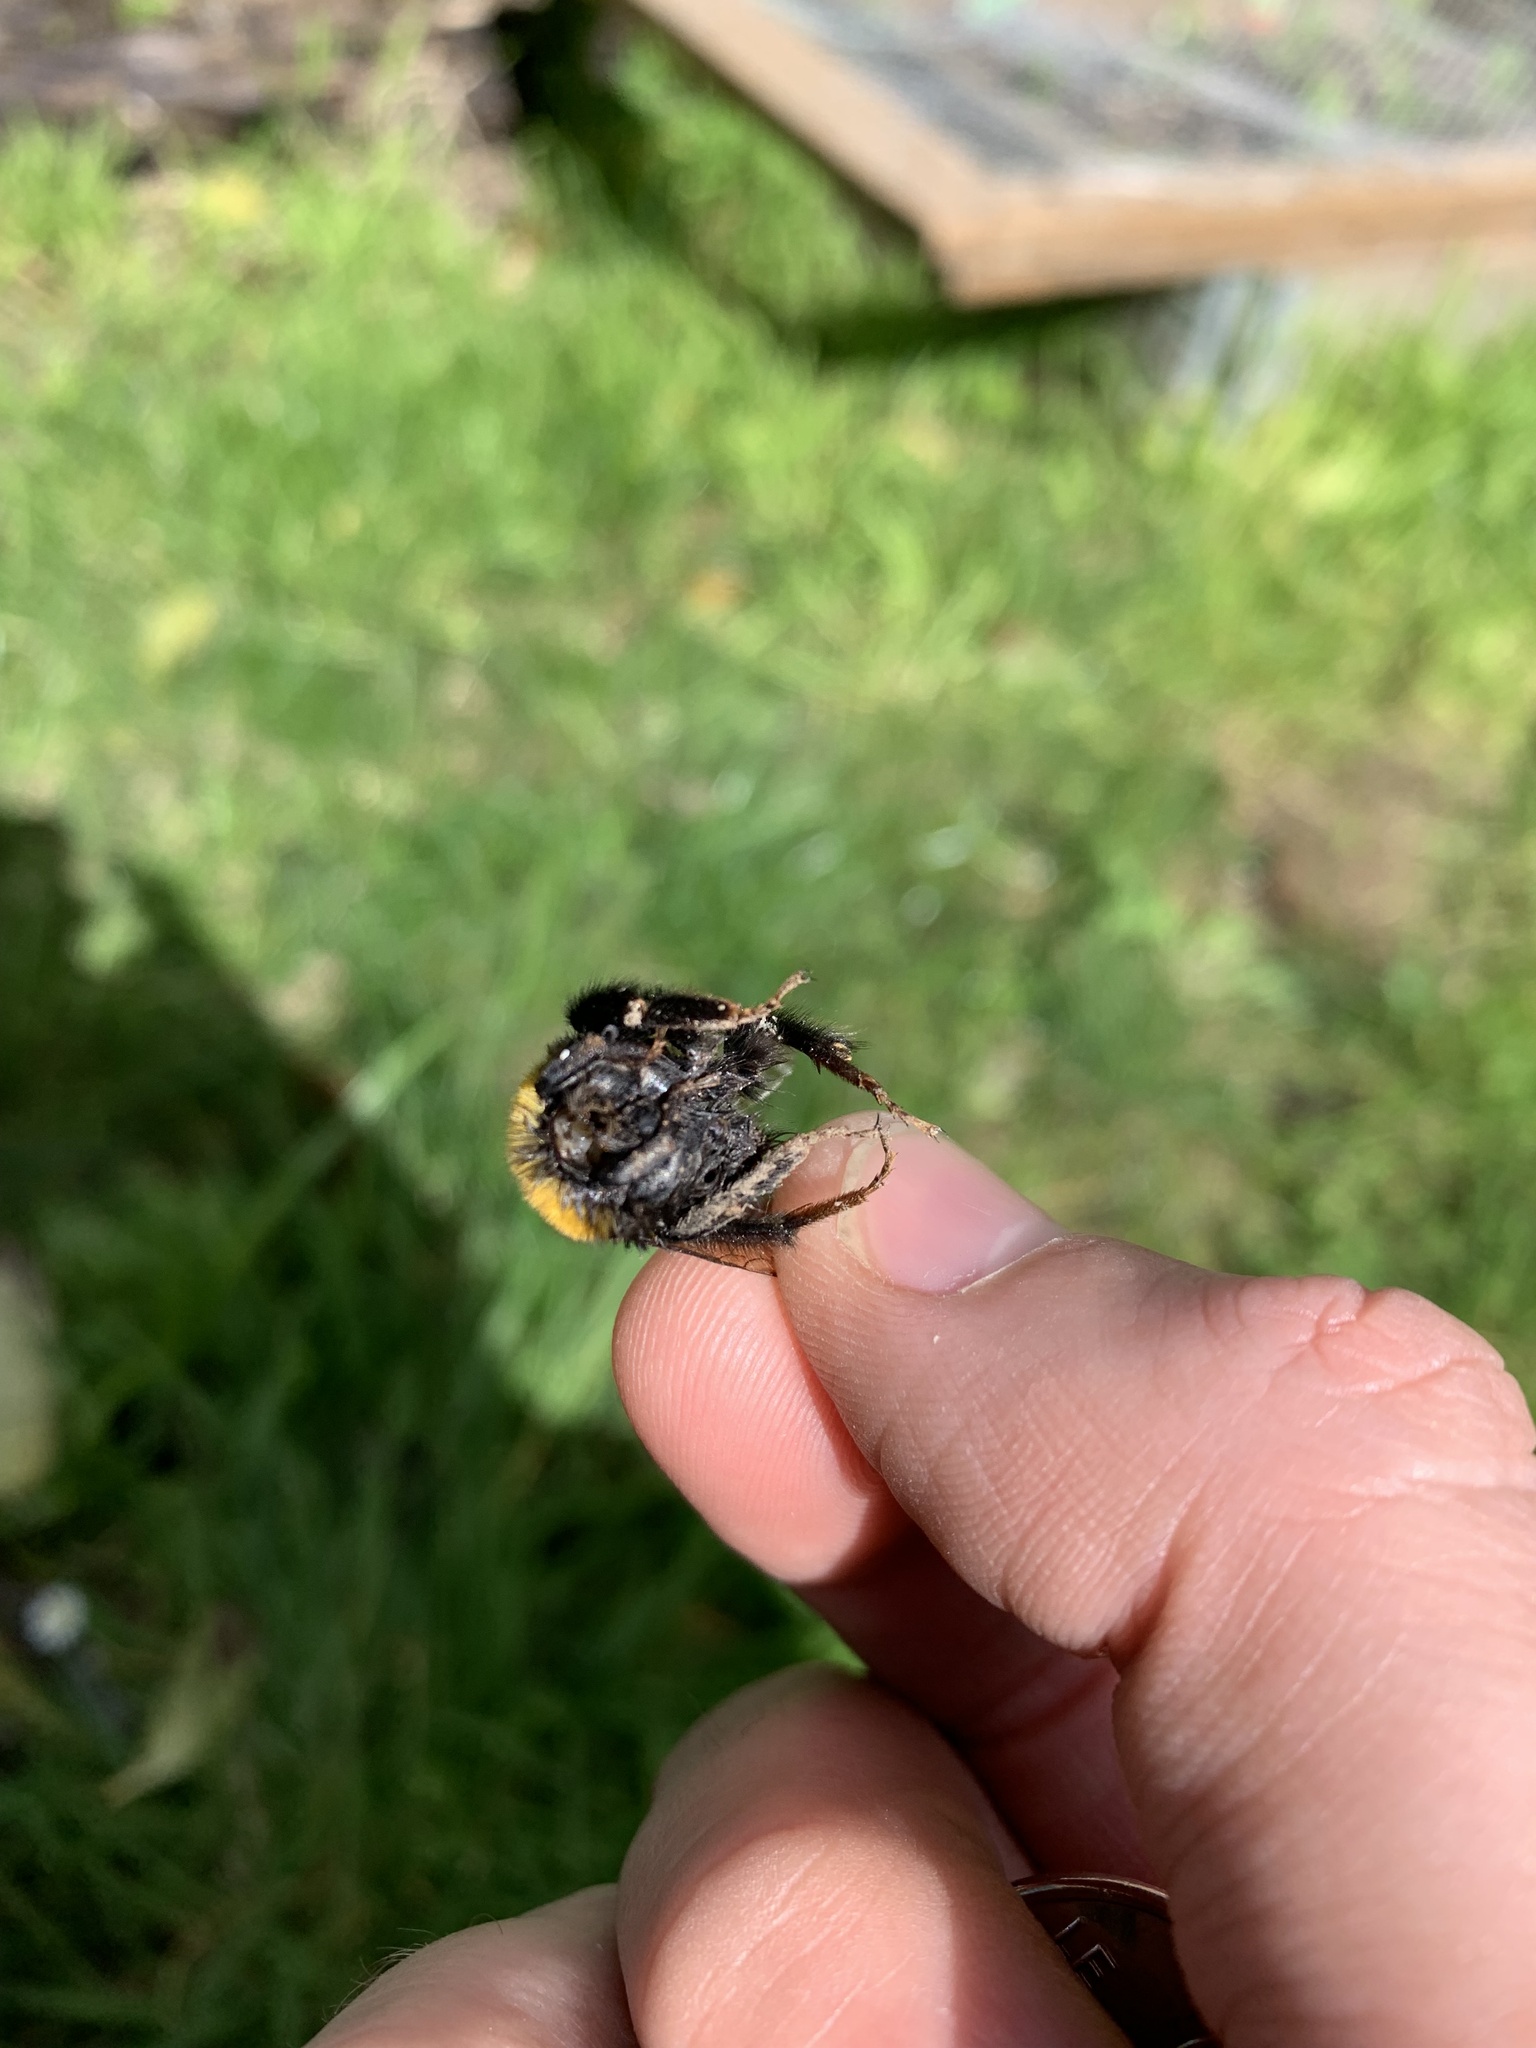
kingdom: Animalia
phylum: Arthropoda
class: Insecta
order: Hymenoptera
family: Apidae
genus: Bombus
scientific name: Bombus terrestris
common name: Buff-tailed bumblebee
